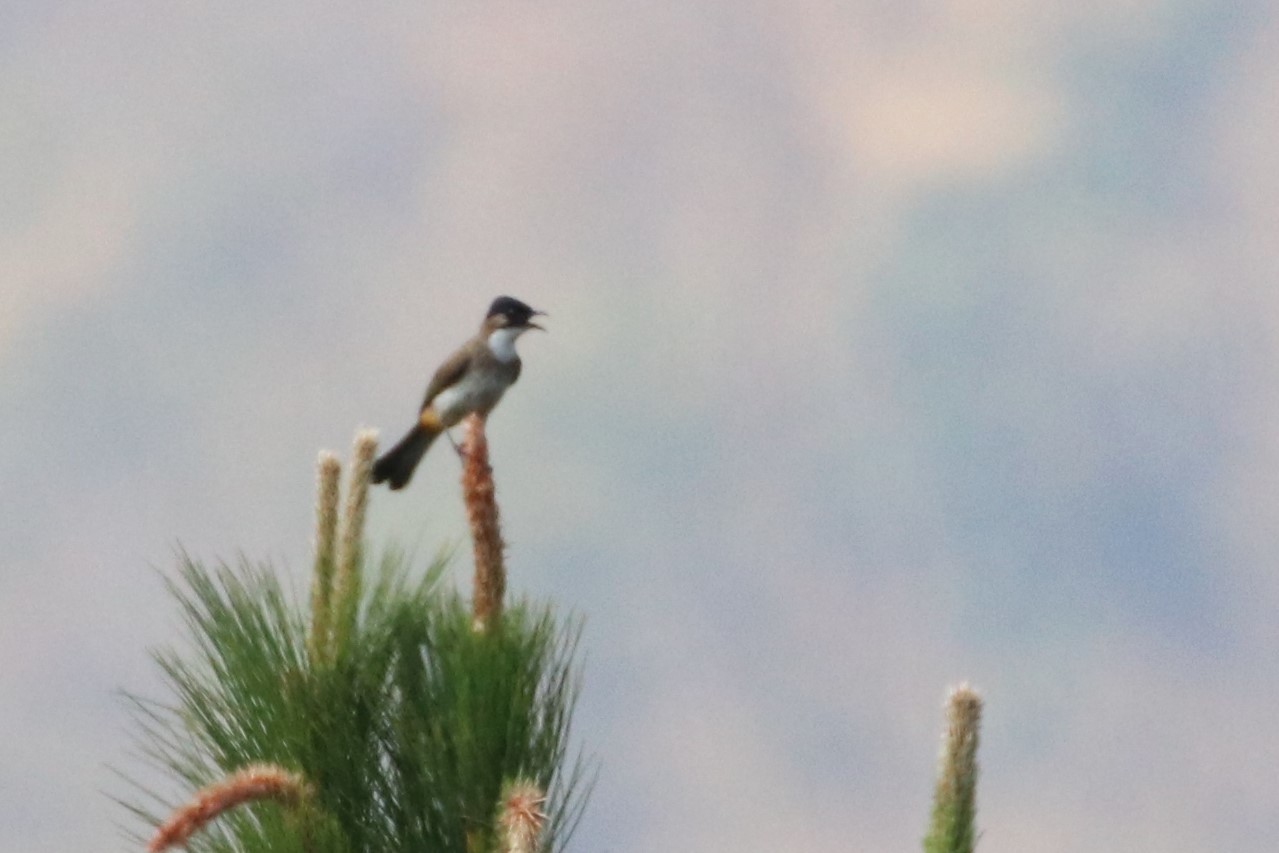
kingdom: Animalia
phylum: Chordata
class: Aves
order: Passeriformes
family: Pycnonotidae
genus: Pycnonotus
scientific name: Pycnonotus xanthorrhous
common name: Brown-breasted bulbul
